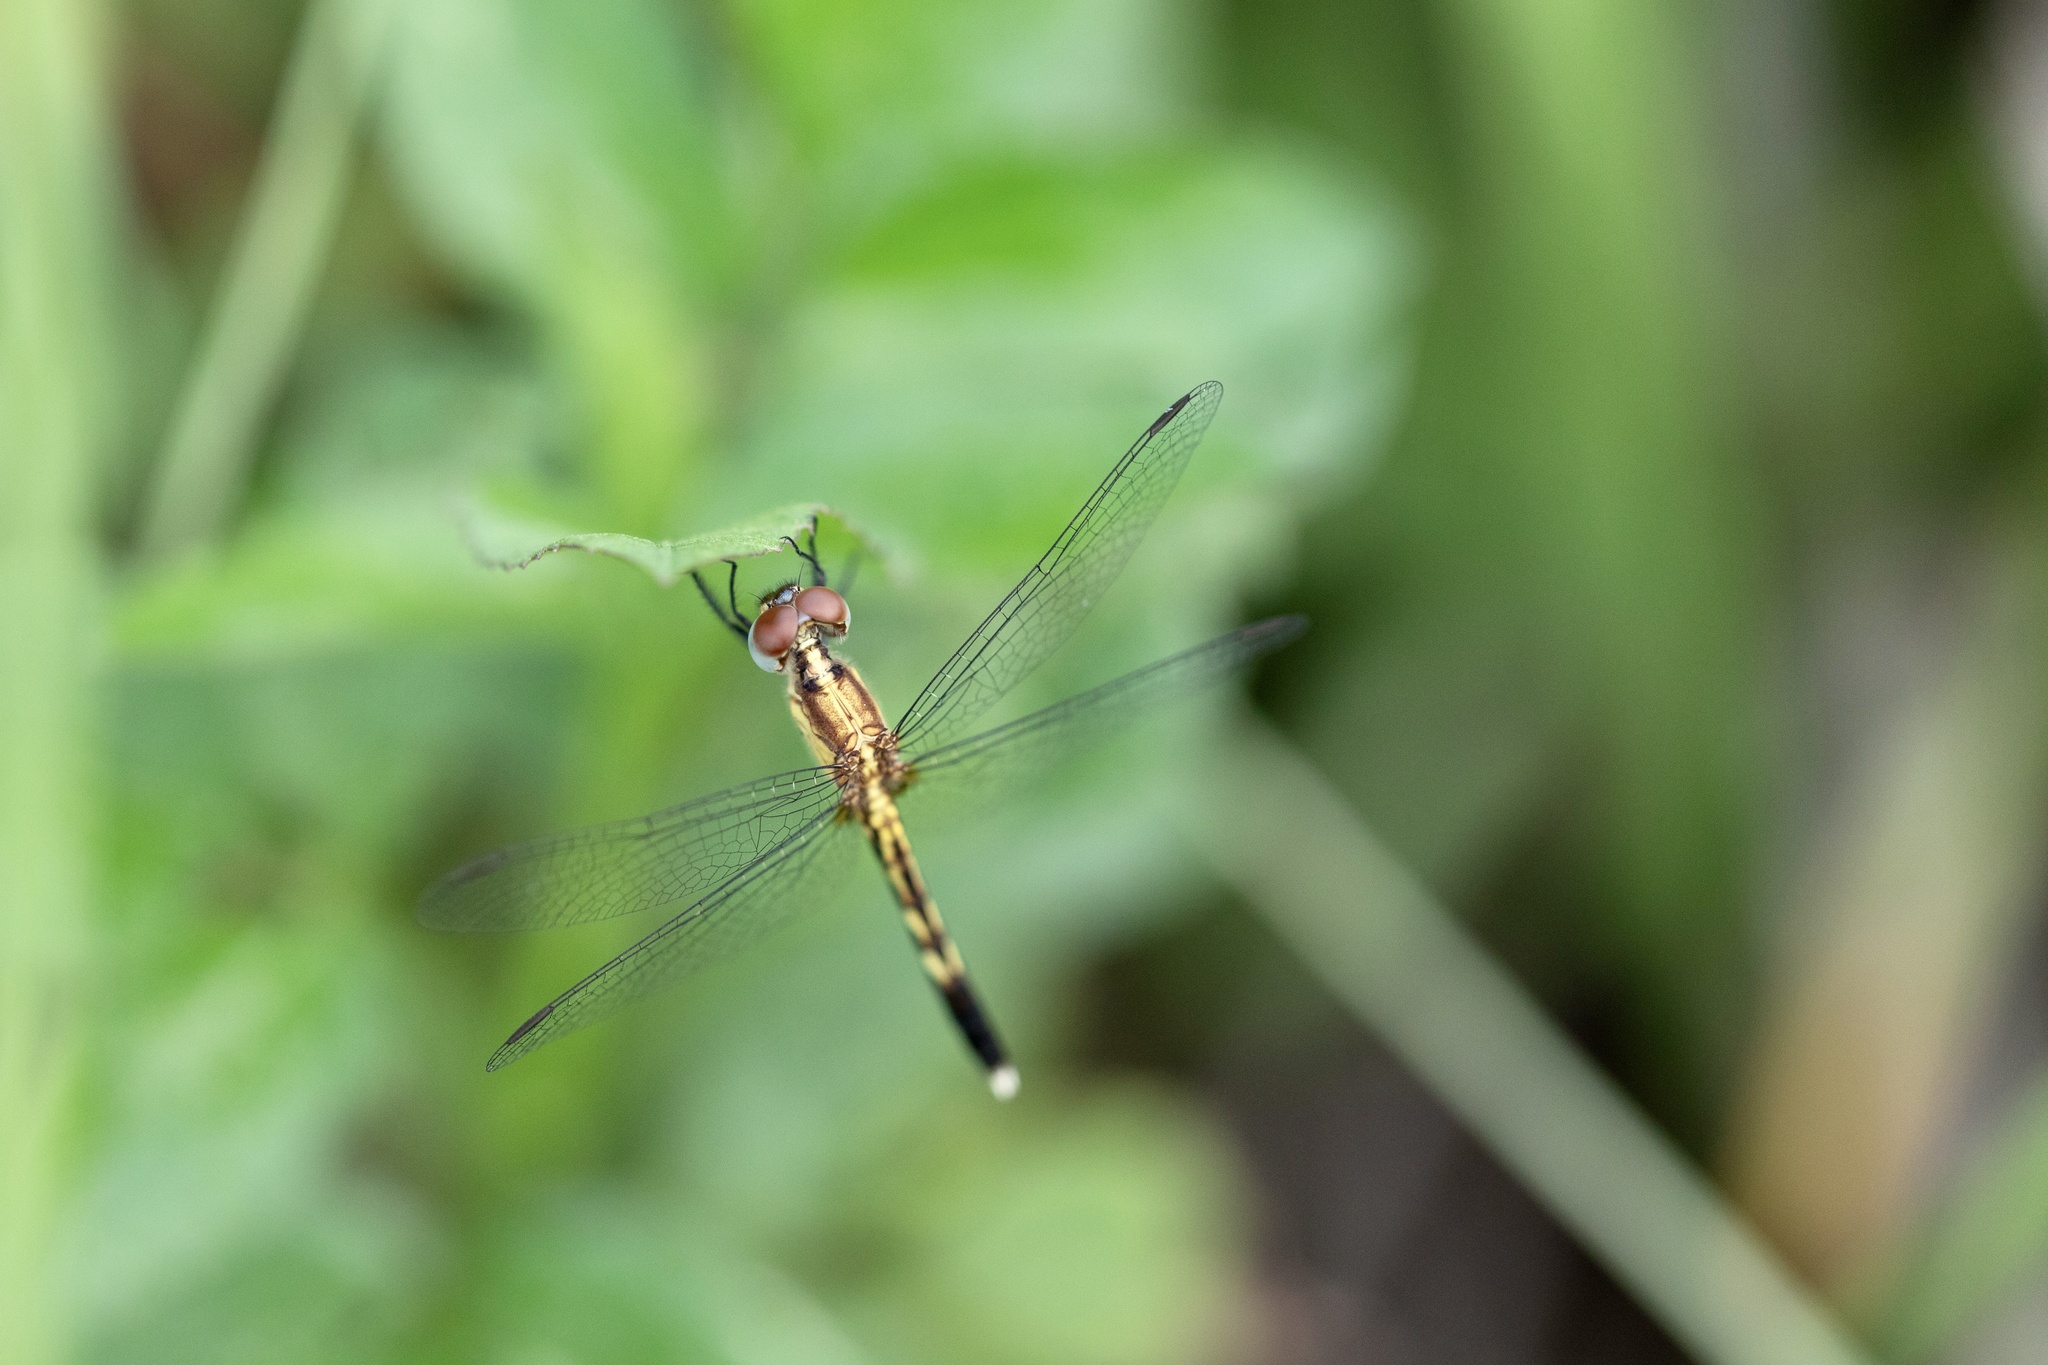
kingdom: Animalia
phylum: Arthropoda
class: Insecta
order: Odonata
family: Libellulidae
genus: Erythrodiplax
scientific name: Erythrodiplax minuscula
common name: Little blue dragonlet
